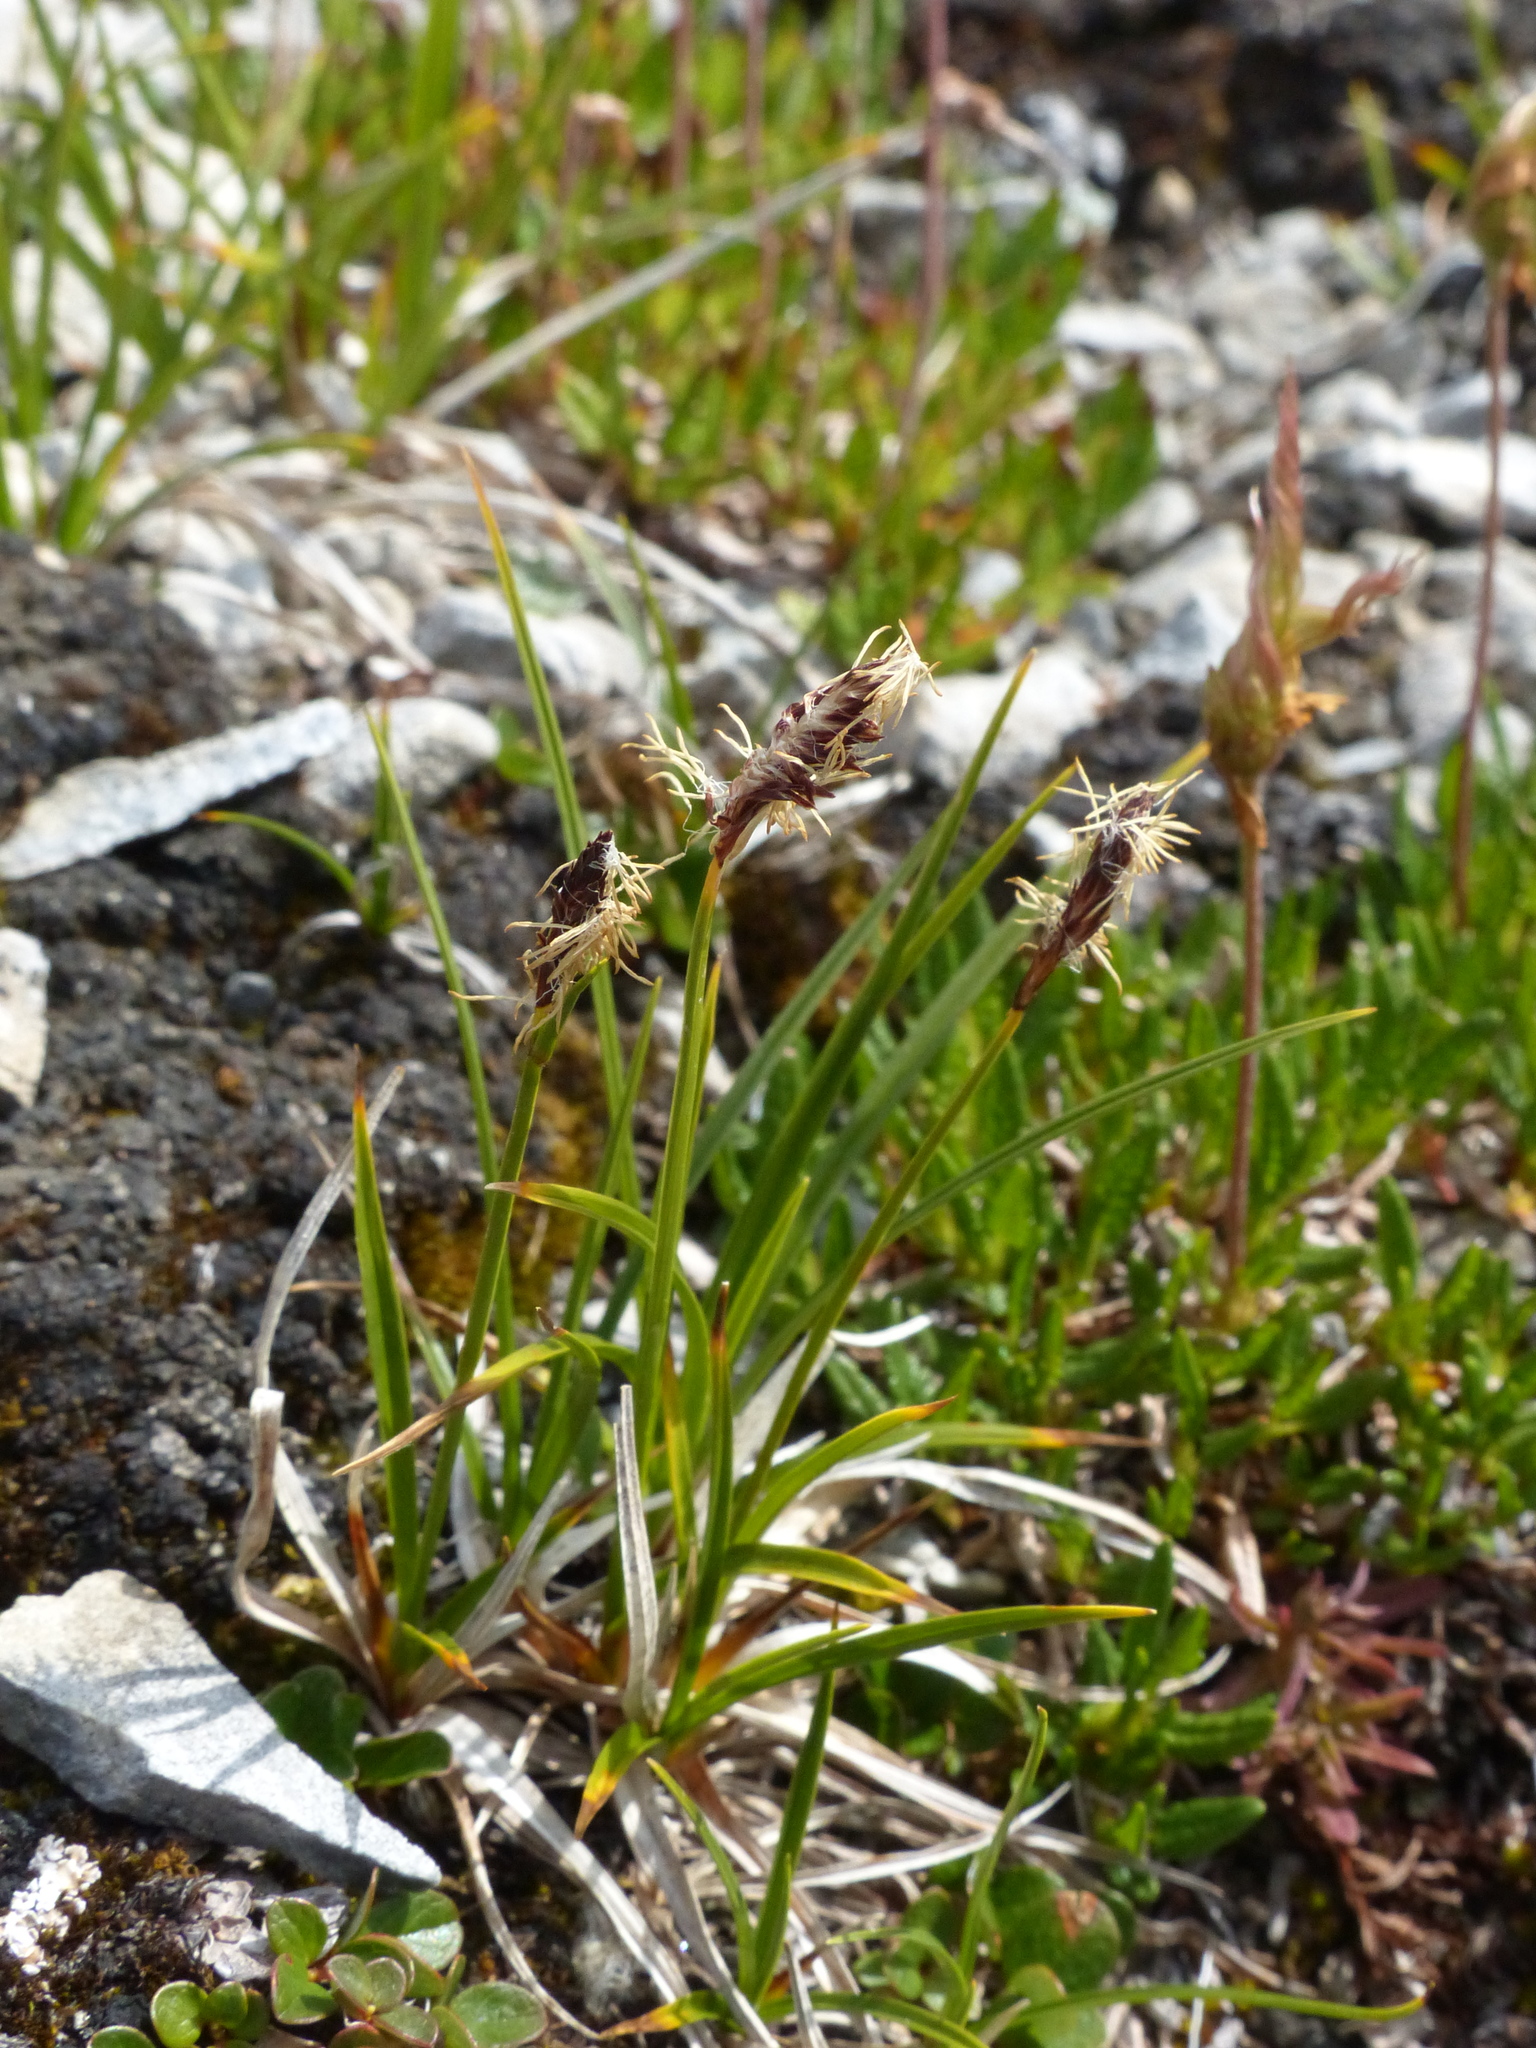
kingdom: Plantae
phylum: Tracheophyta
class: Liliopsida
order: Poales
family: Cyperaceae
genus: Carex
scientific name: Carex scirpoidea
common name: Canada single-spike sedge
